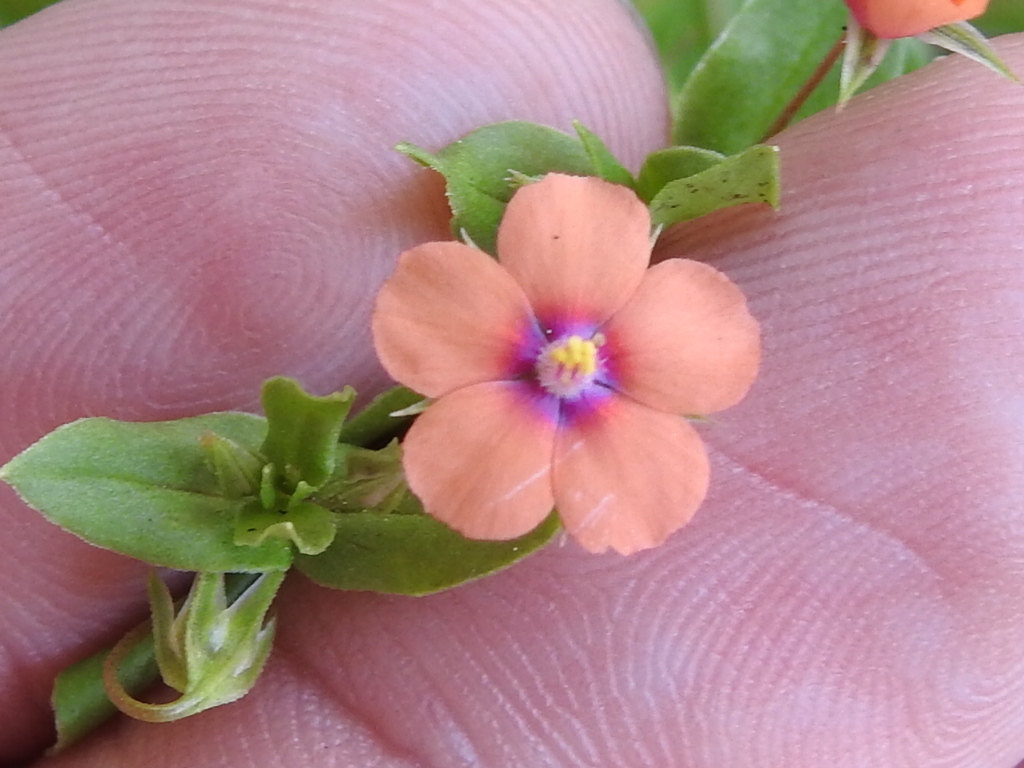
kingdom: Plantae
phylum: Tracheophyta
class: Magnoliopsida
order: Ericales
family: Primulaceae
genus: Lysimachia
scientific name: Lysimachia arvensis
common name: Scarlet pimpernel
